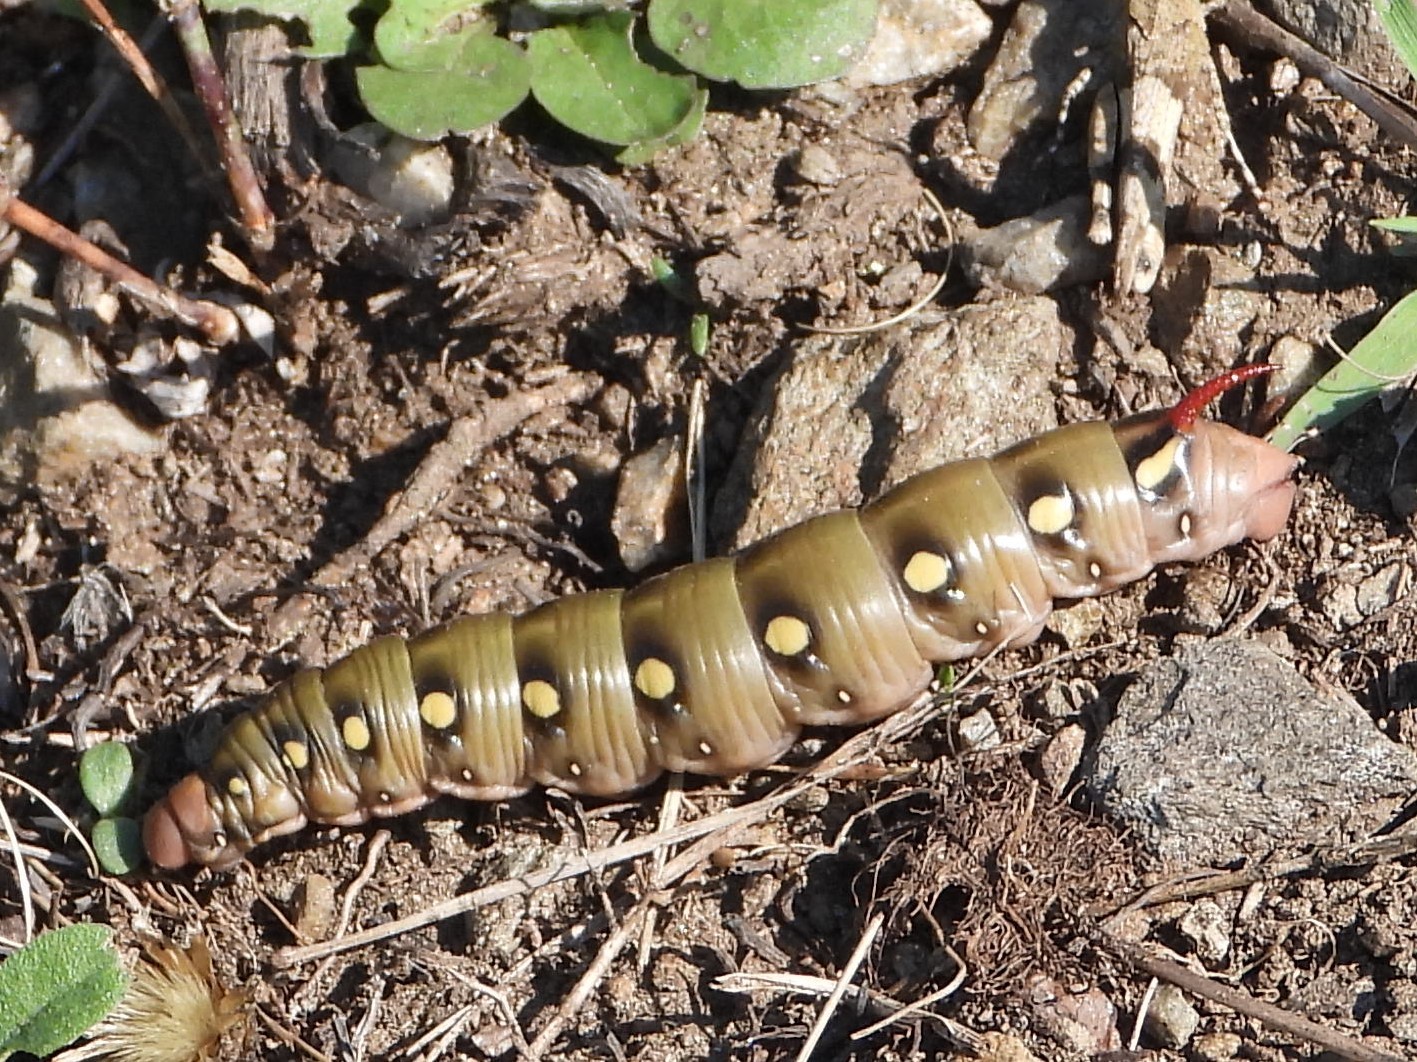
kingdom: Animalia
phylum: Arthropoda
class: Insecta
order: Lepidoptera
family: Sphingidae
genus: Hyles
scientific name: Hyles gallii
